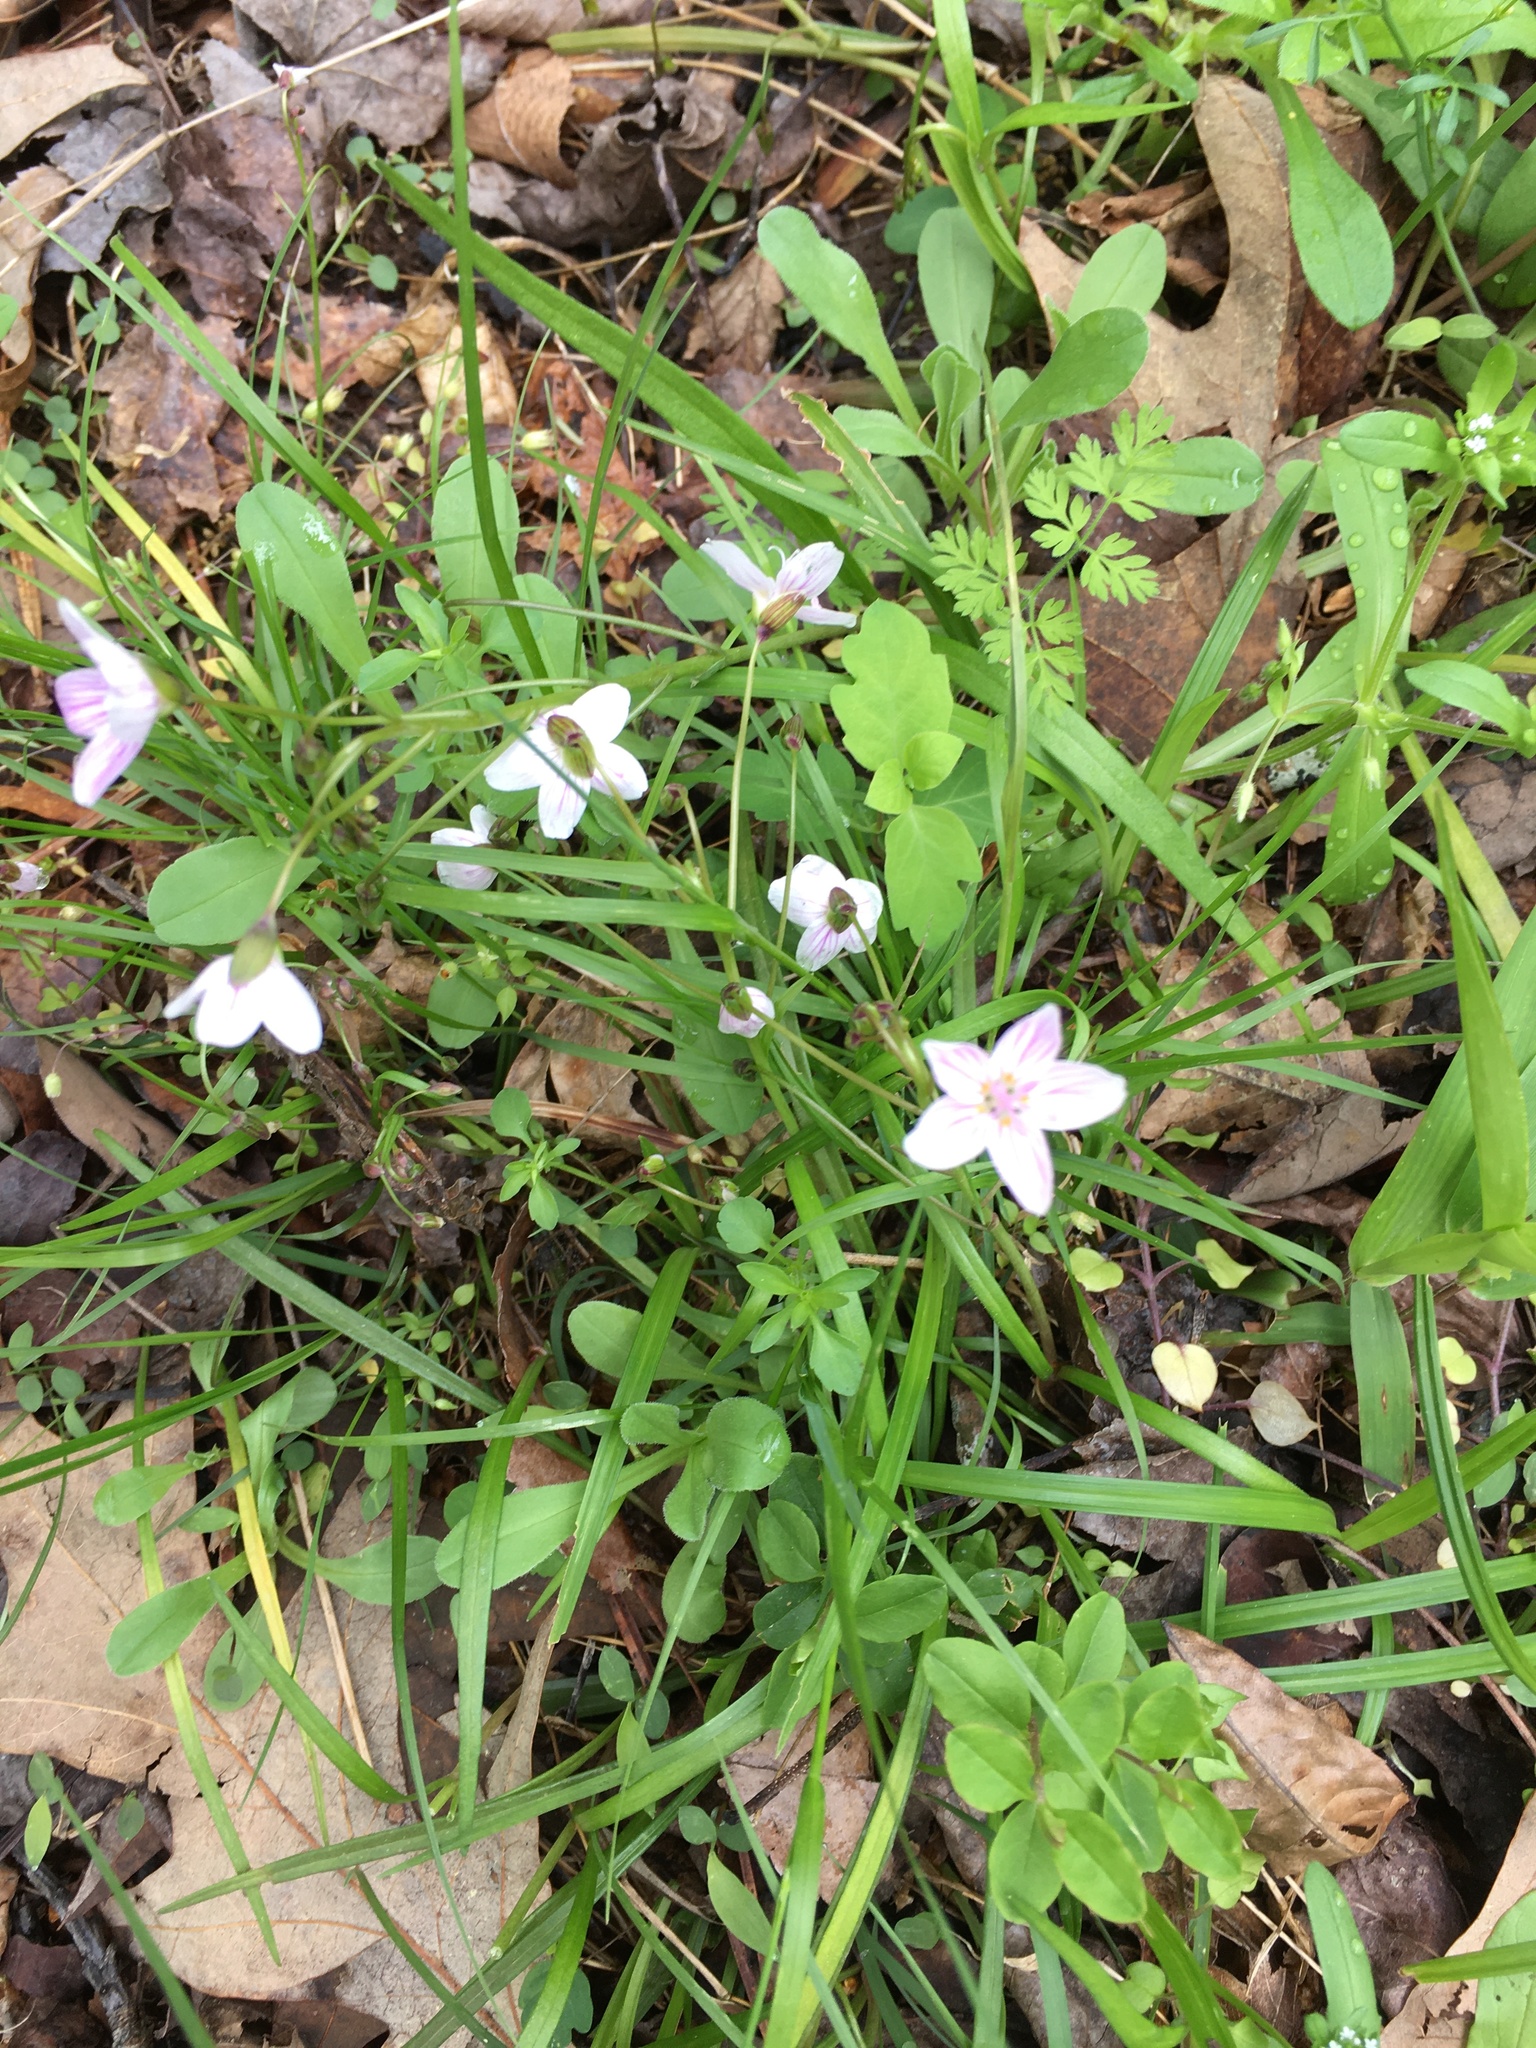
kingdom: Plantae
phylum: Tracheophyta
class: Magnoliopsida
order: Caryophyllales
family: Montiaceae
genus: Claytonia
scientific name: Claytonia virginica
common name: Virginia springbeauty
